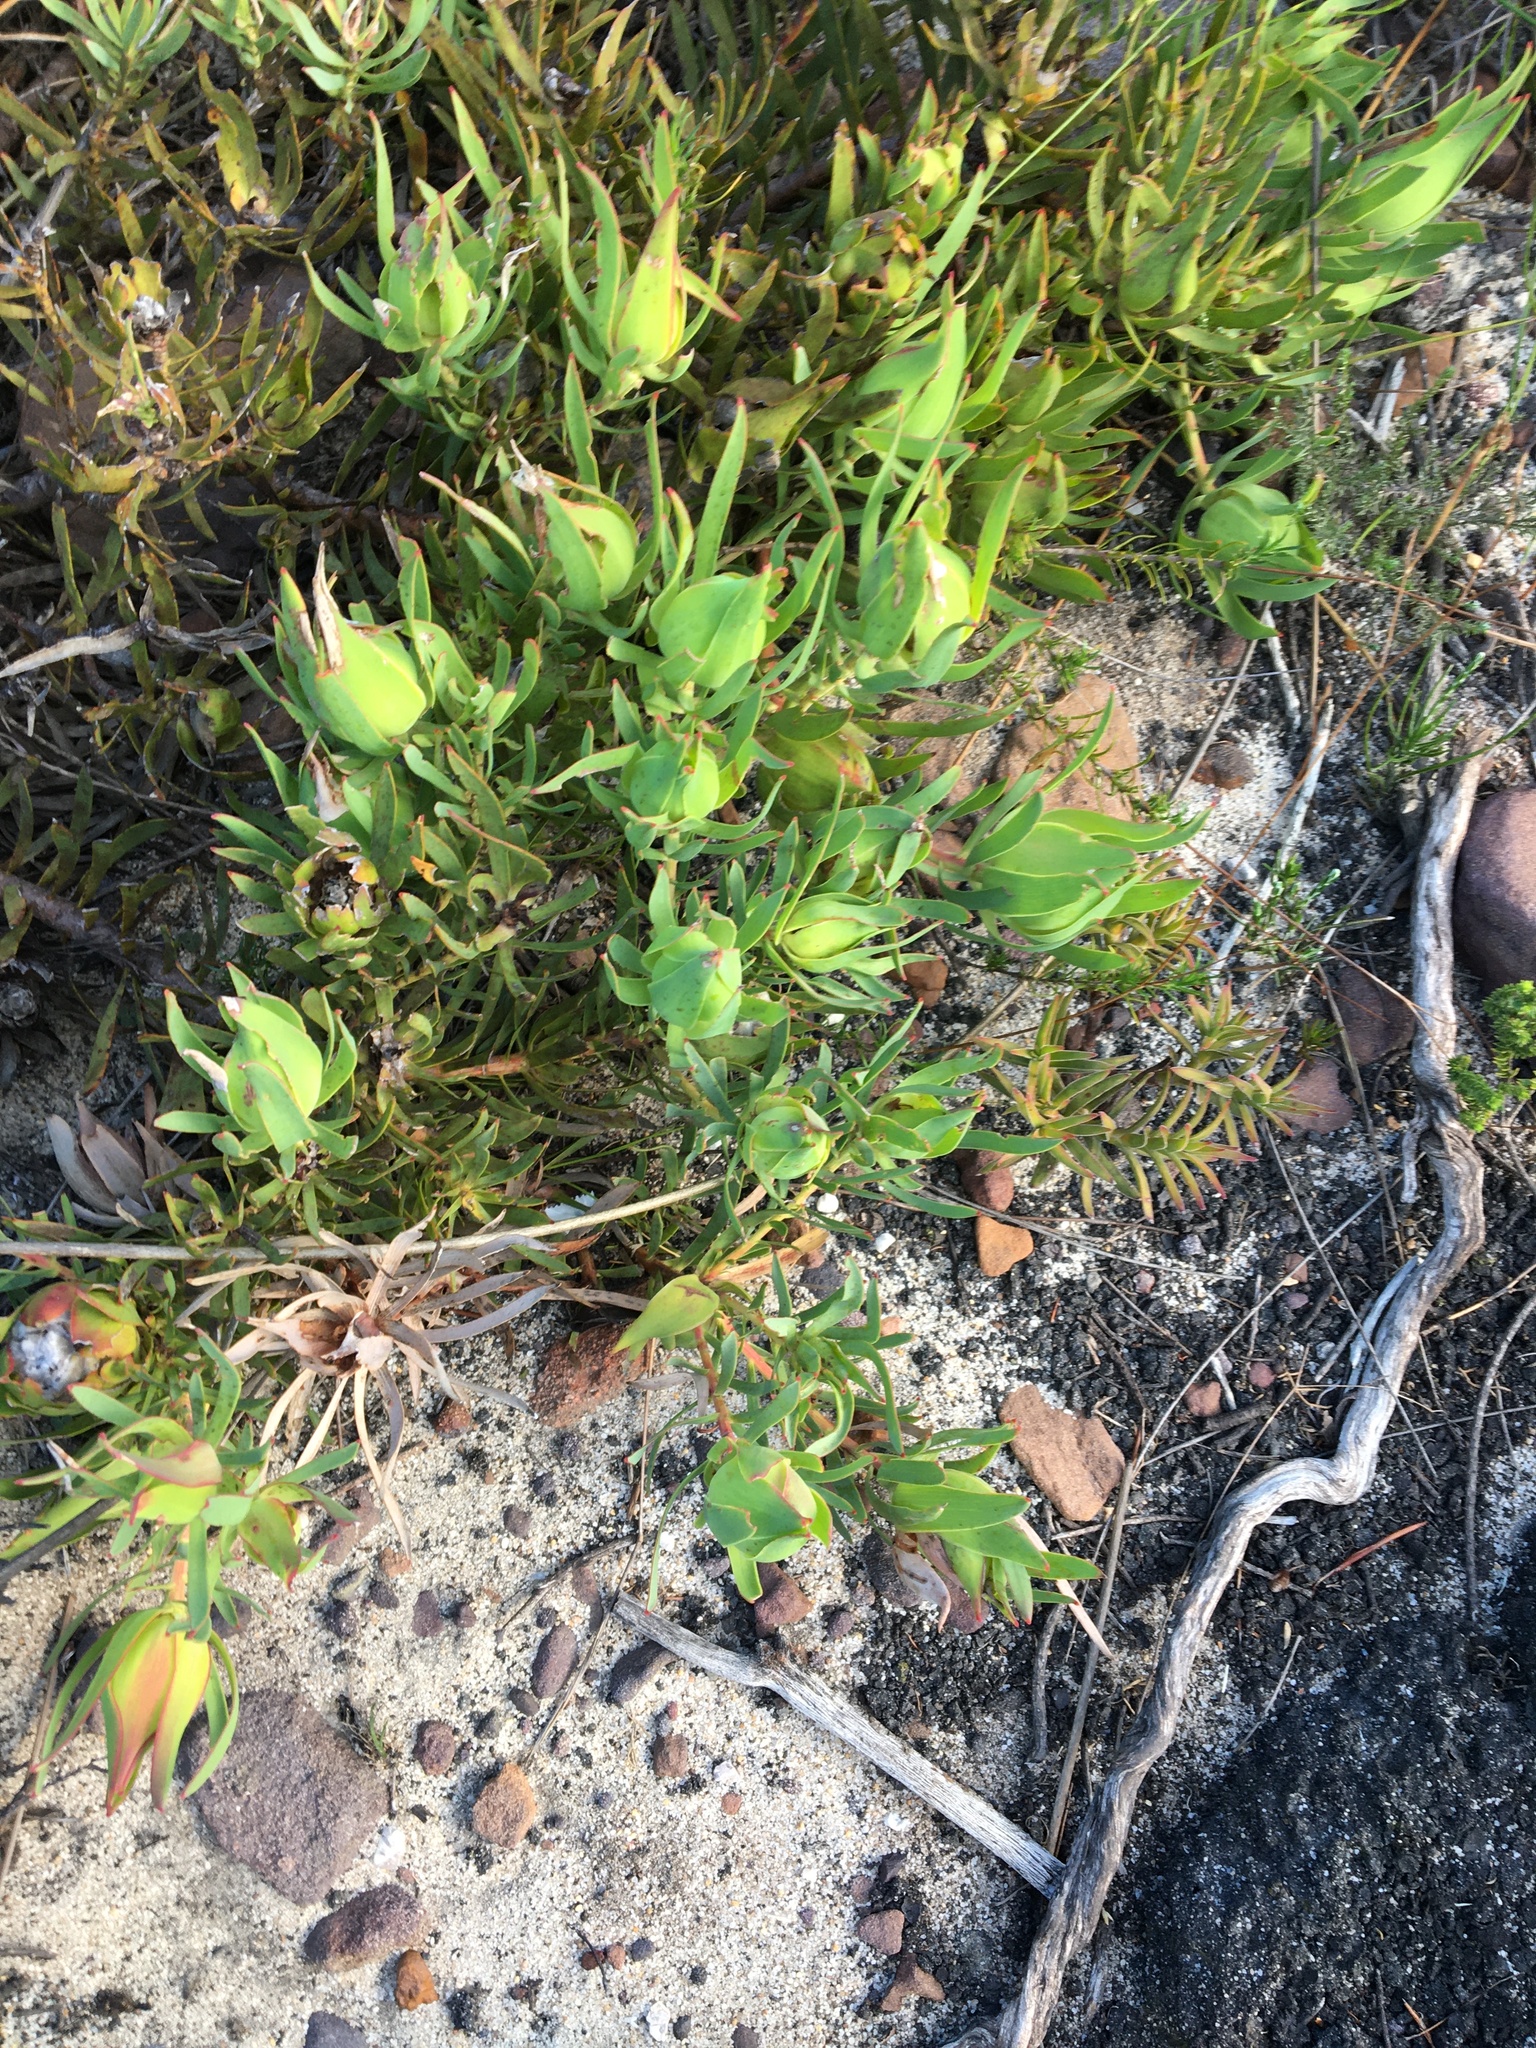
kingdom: Plantae
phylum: Tracheophyta
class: Magnoliopsida
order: Proteales
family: Proteaceae
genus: Leucadendron
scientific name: Leucadendron salignum
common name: Common sunshine conebush
